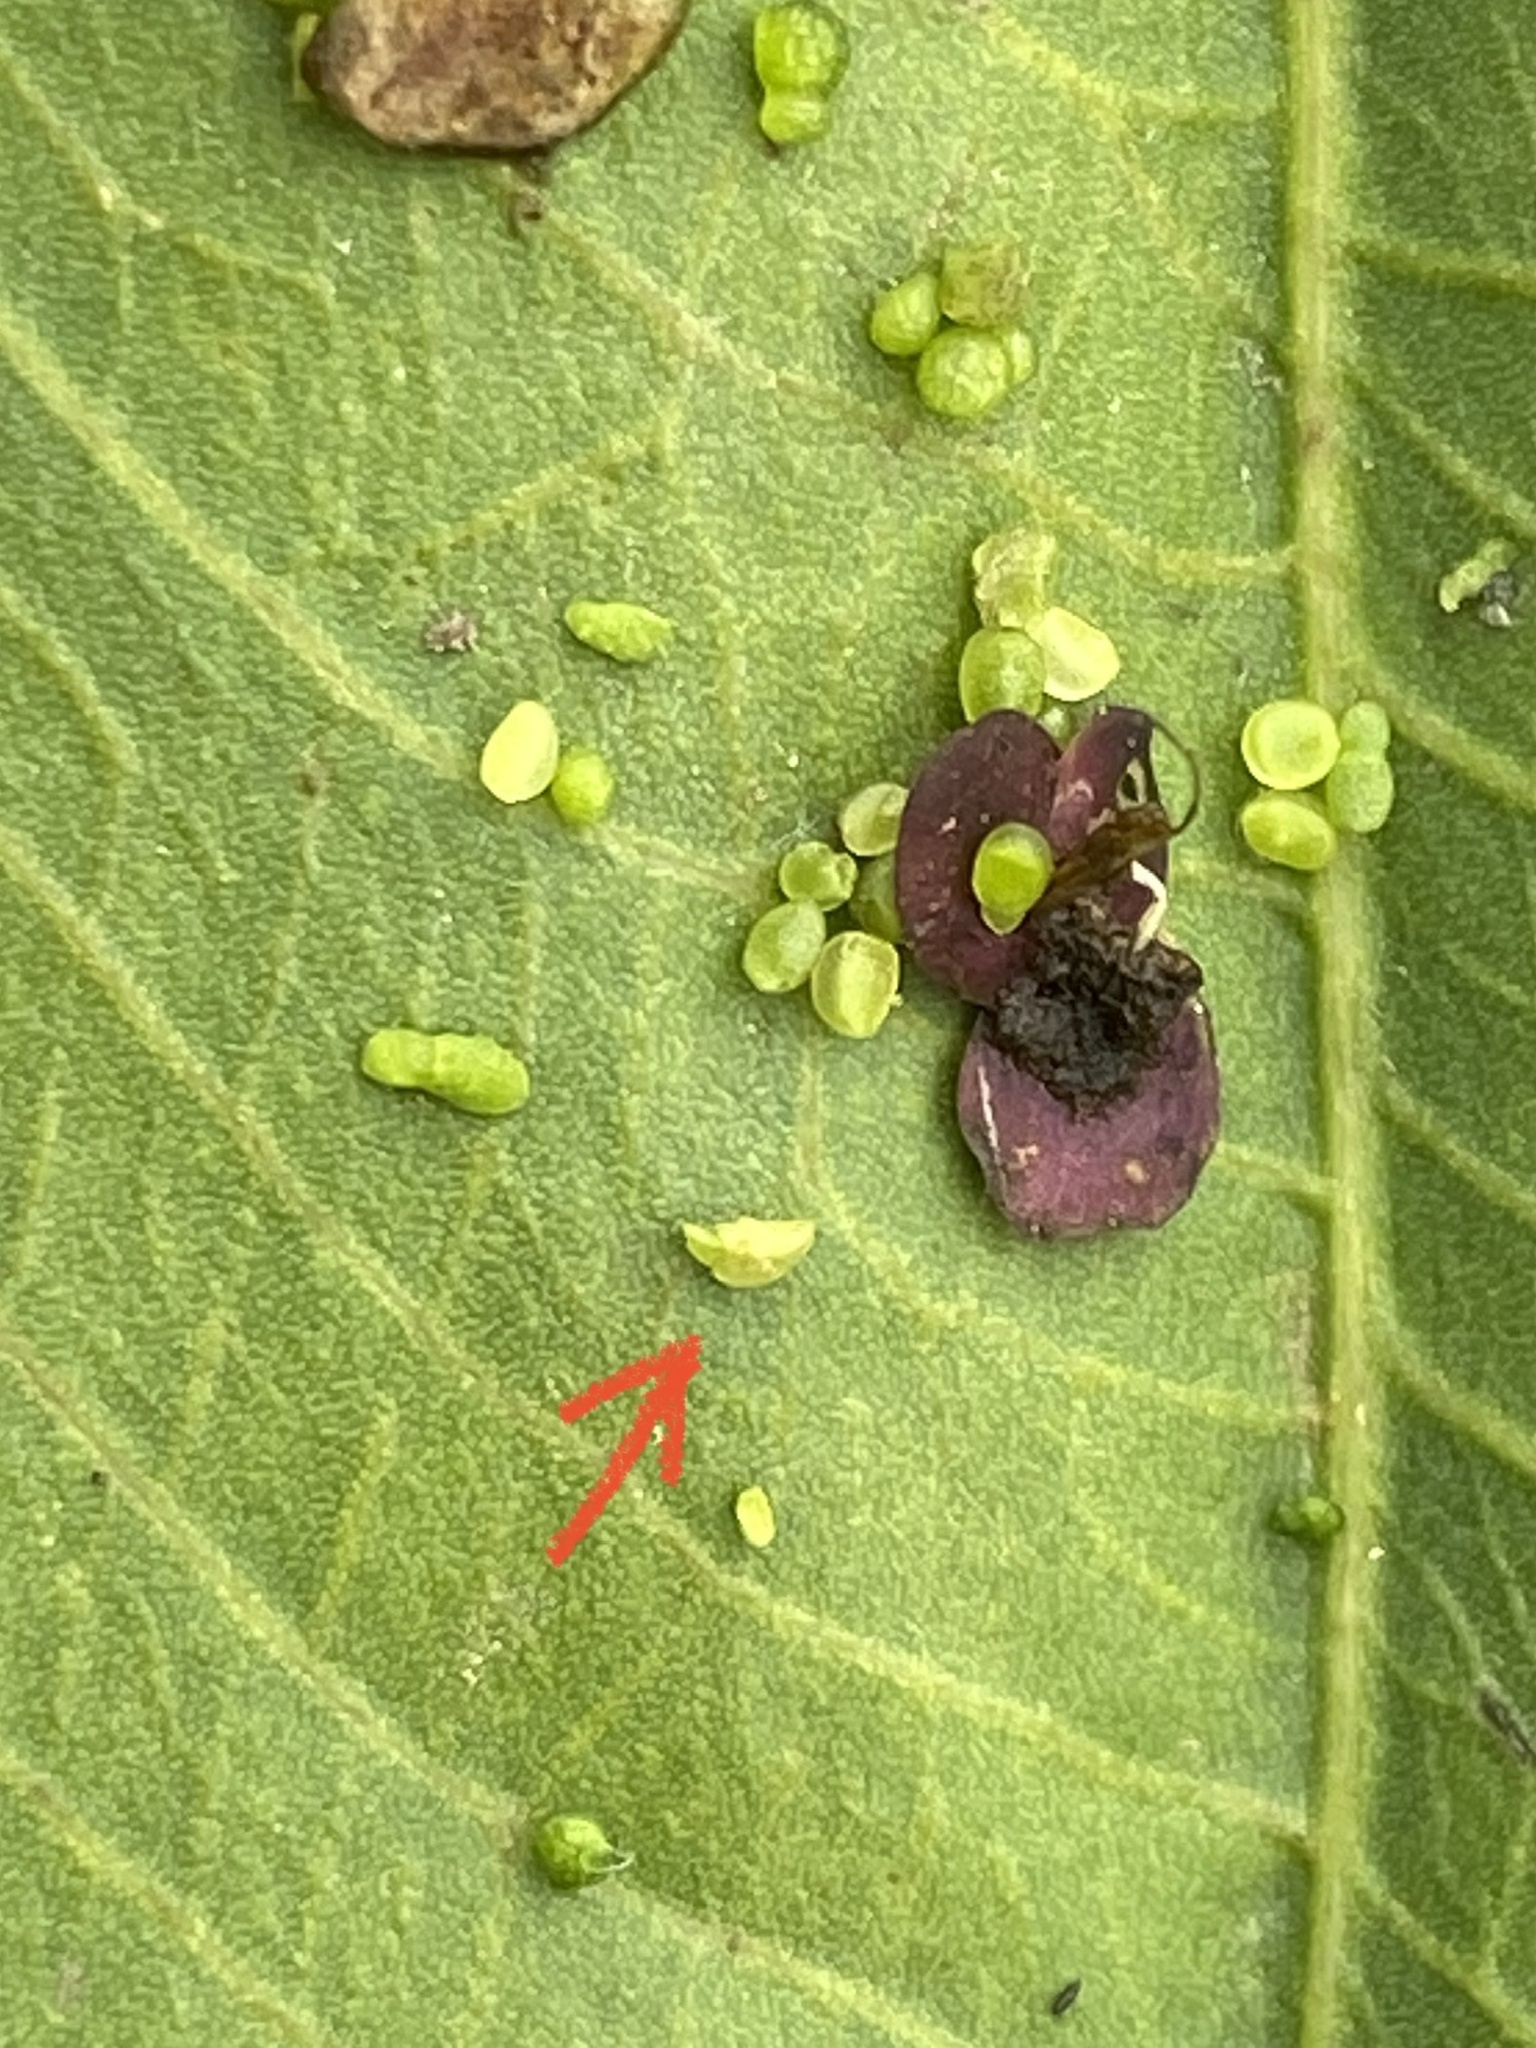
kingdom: Plantae
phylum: Tracheophyta
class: Liliopsida
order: Alismatales
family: Araceae
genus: Wolffia
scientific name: Wolffia brasiliensis
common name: Brazilian watermeal
